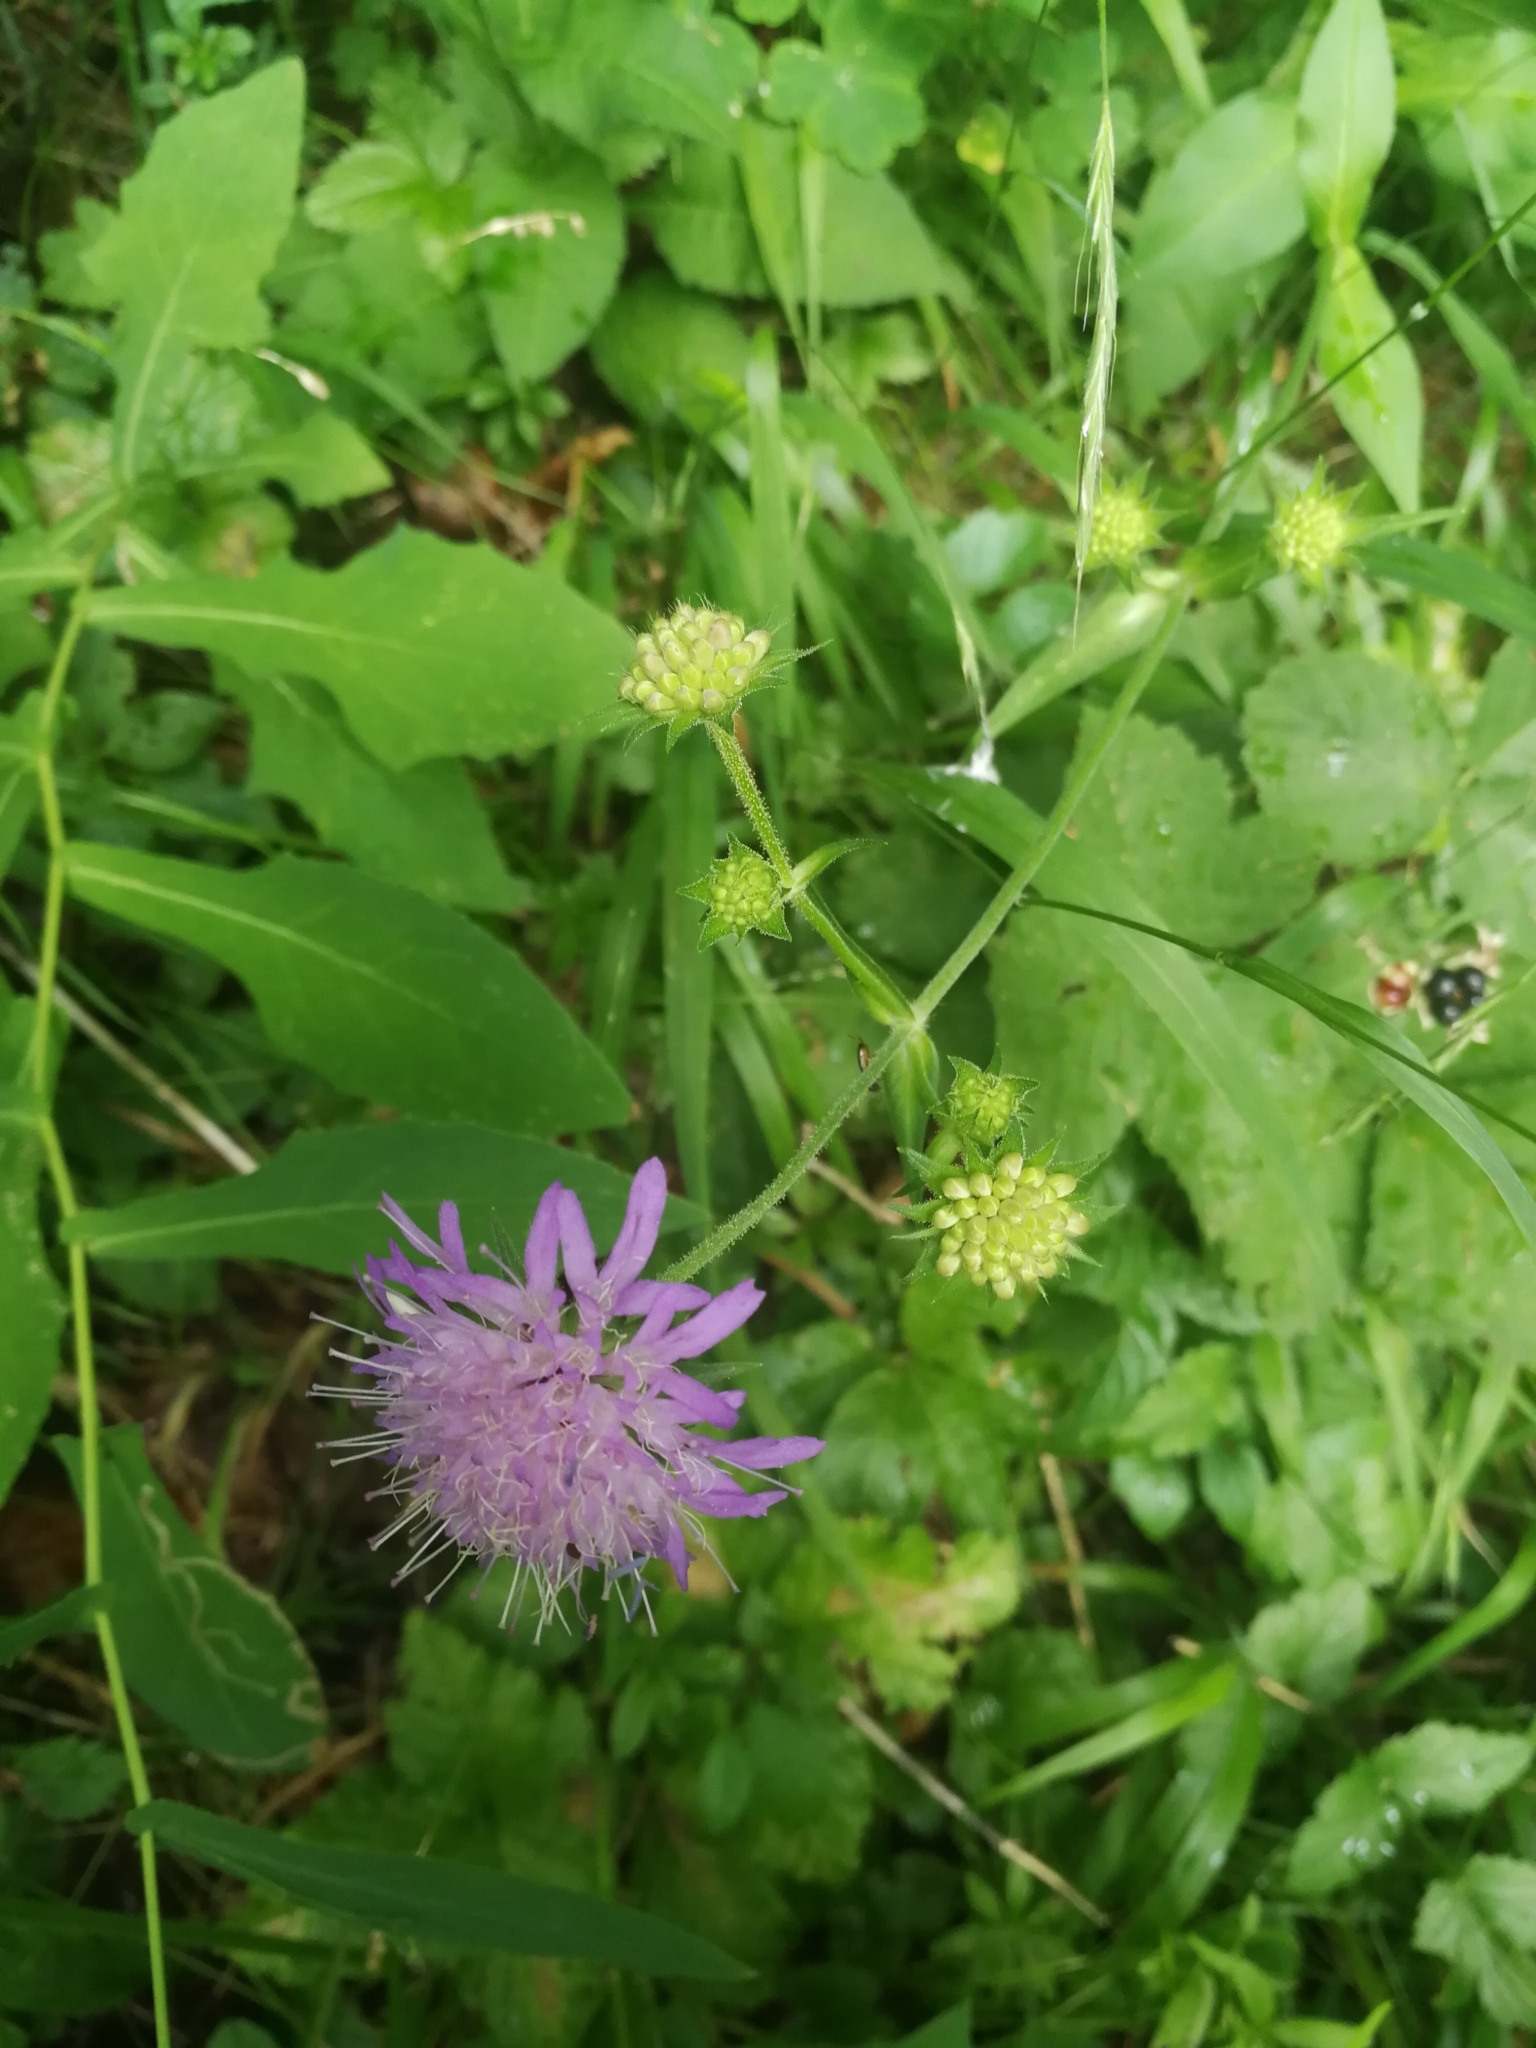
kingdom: Plantae
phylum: Tracheophyta
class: Magnoliopsida
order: Dipsacales
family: Caprifoliaceae
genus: Knautia
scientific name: Knautia arvensis
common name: Field scabiosa
